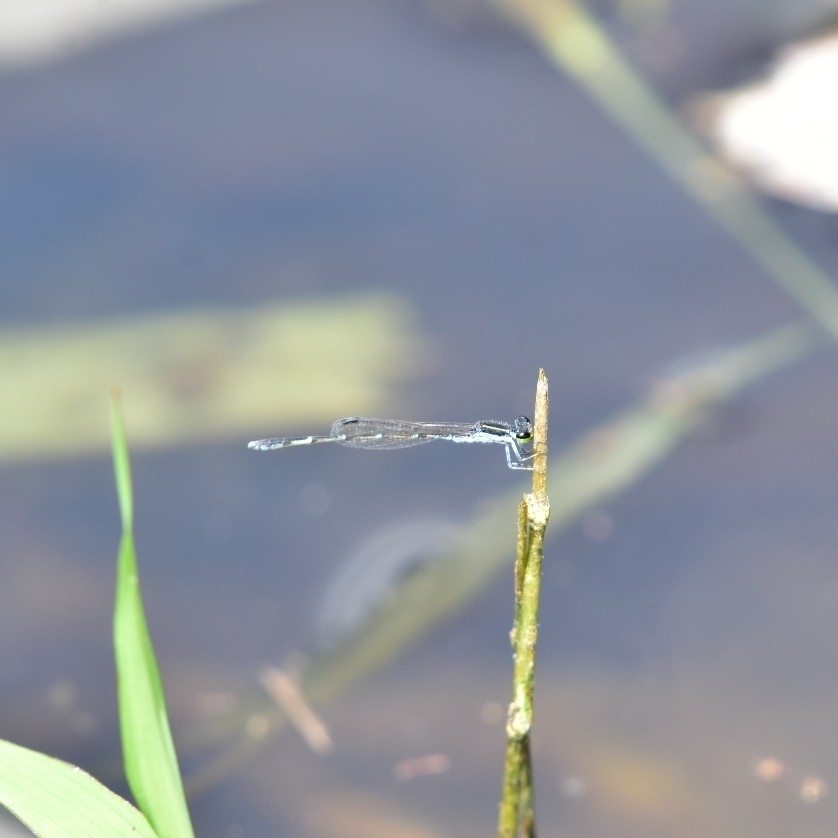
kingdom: Animalia
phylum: Arthropoda
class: Insecta
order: Odonata
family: Coenagrionidae
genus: Agriocnemis
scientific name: Agriocnemis splendidissima
